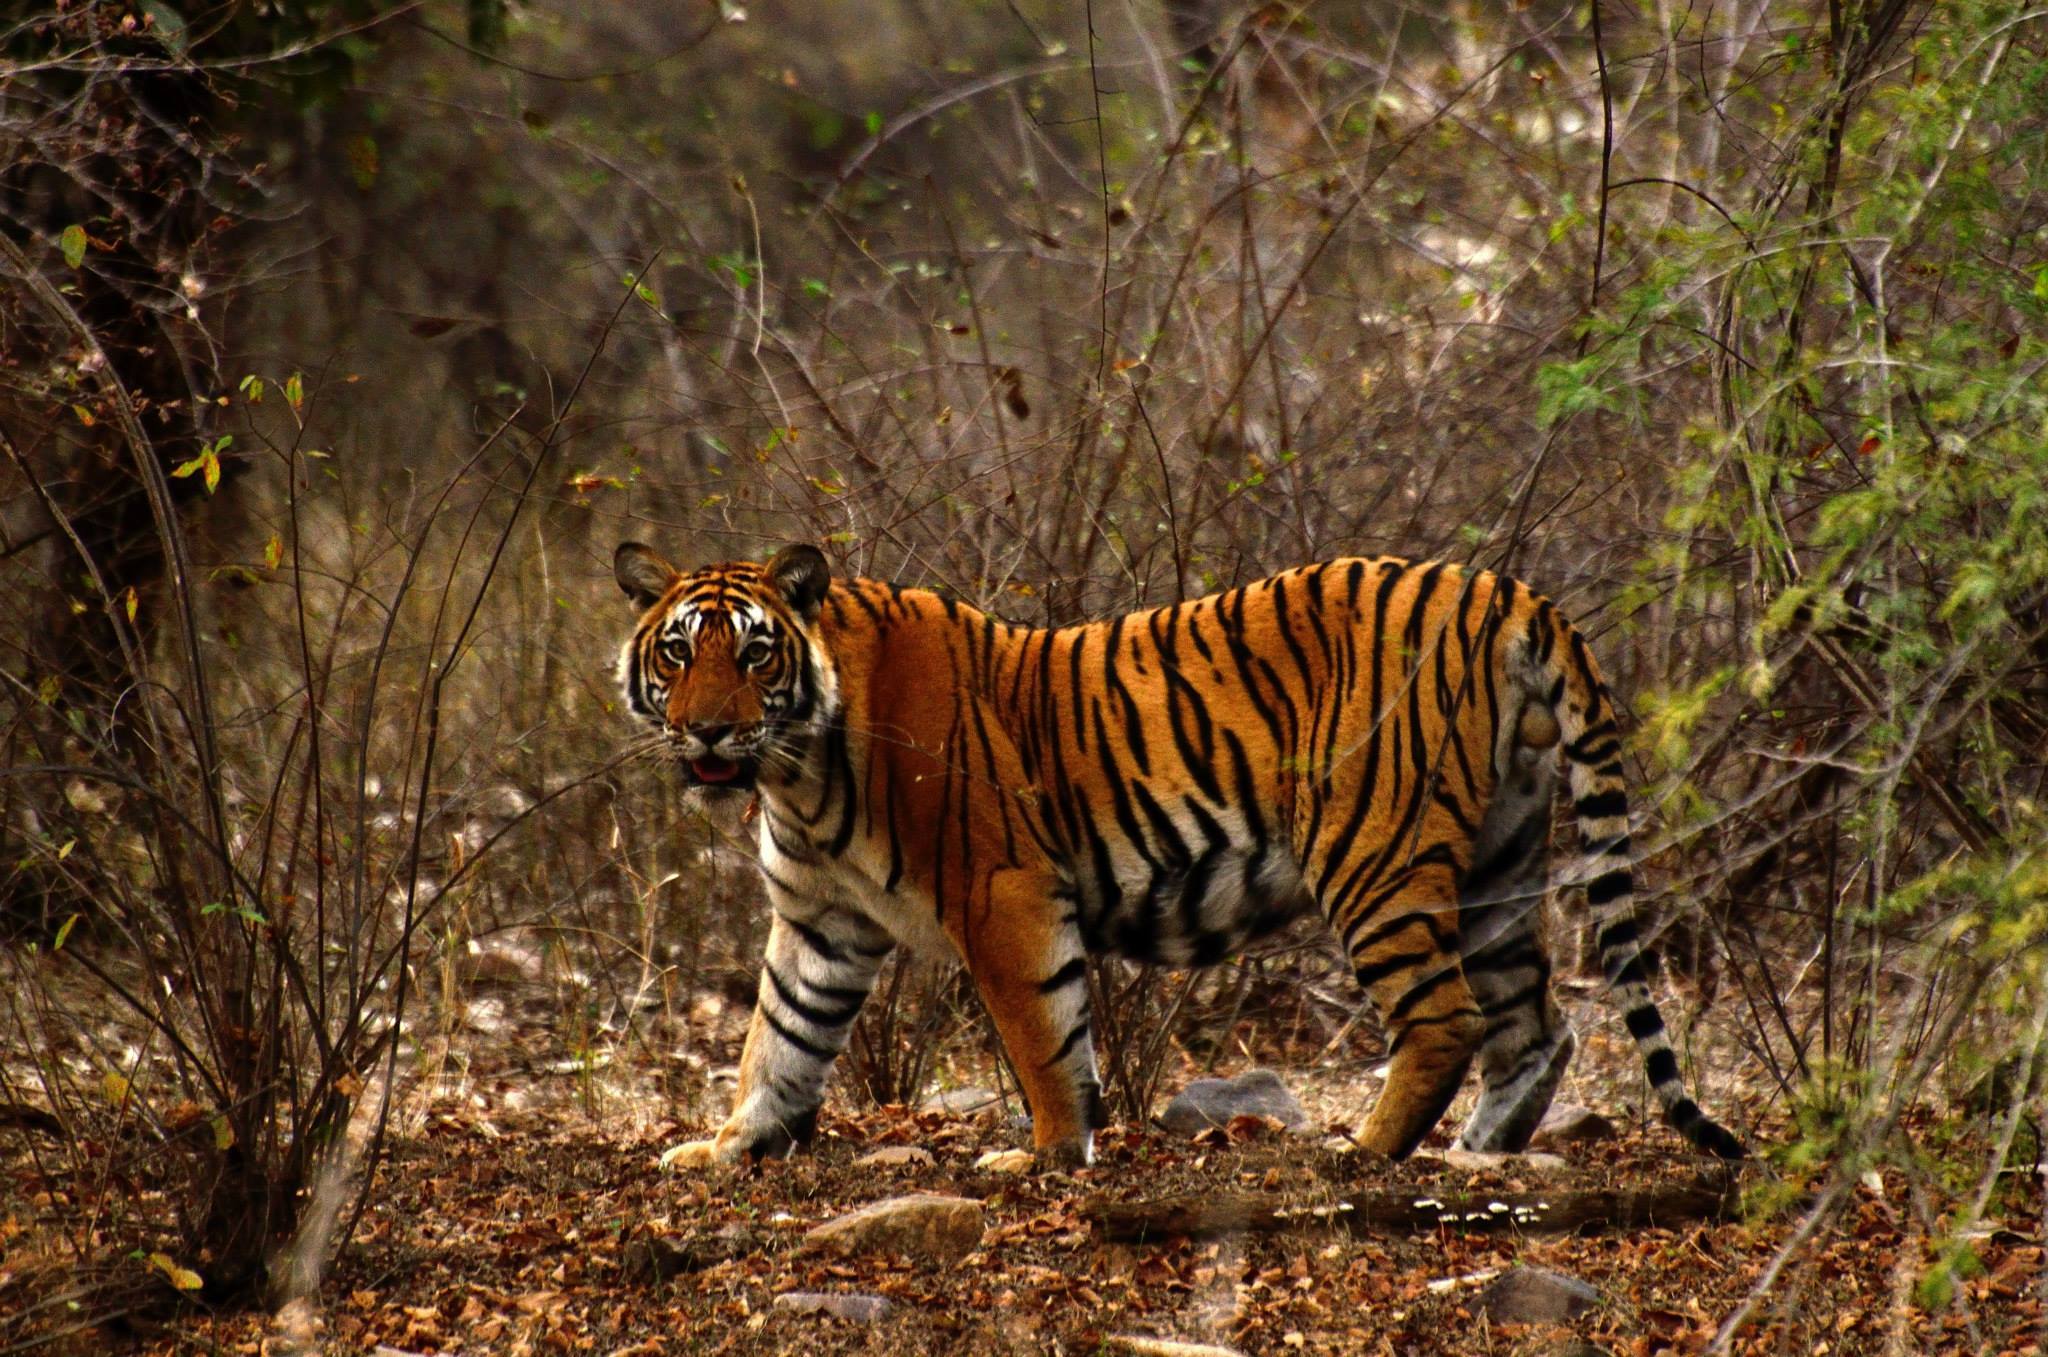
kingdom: Animalia
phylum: Chordata
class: Mammalia
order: Carnivora
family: Felidae
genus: Panthera
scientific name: Panthera tigris
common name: Tiger
